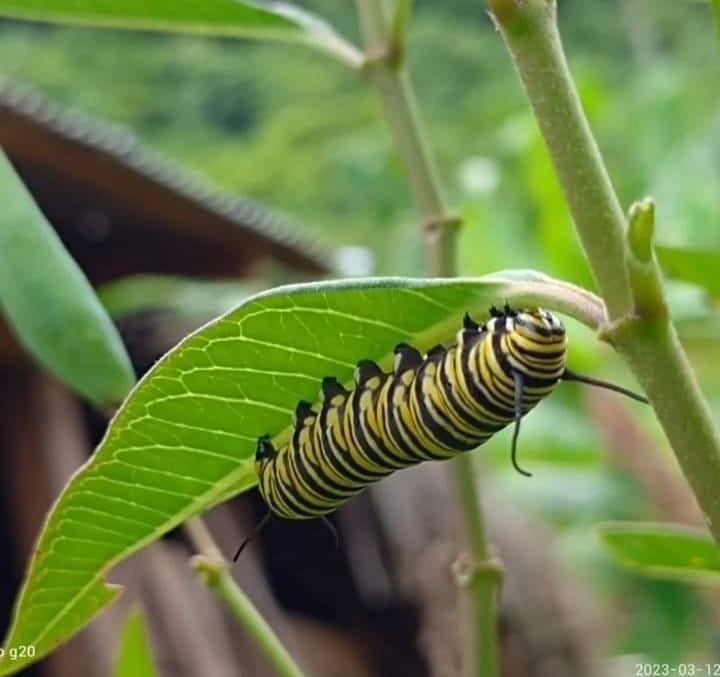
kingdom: Animalia
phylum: Arthropoda
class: Insecta
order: Lepidoptera
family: Nymphalidae
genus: Danaus
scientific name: Danaus plexippus
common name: Monarch
